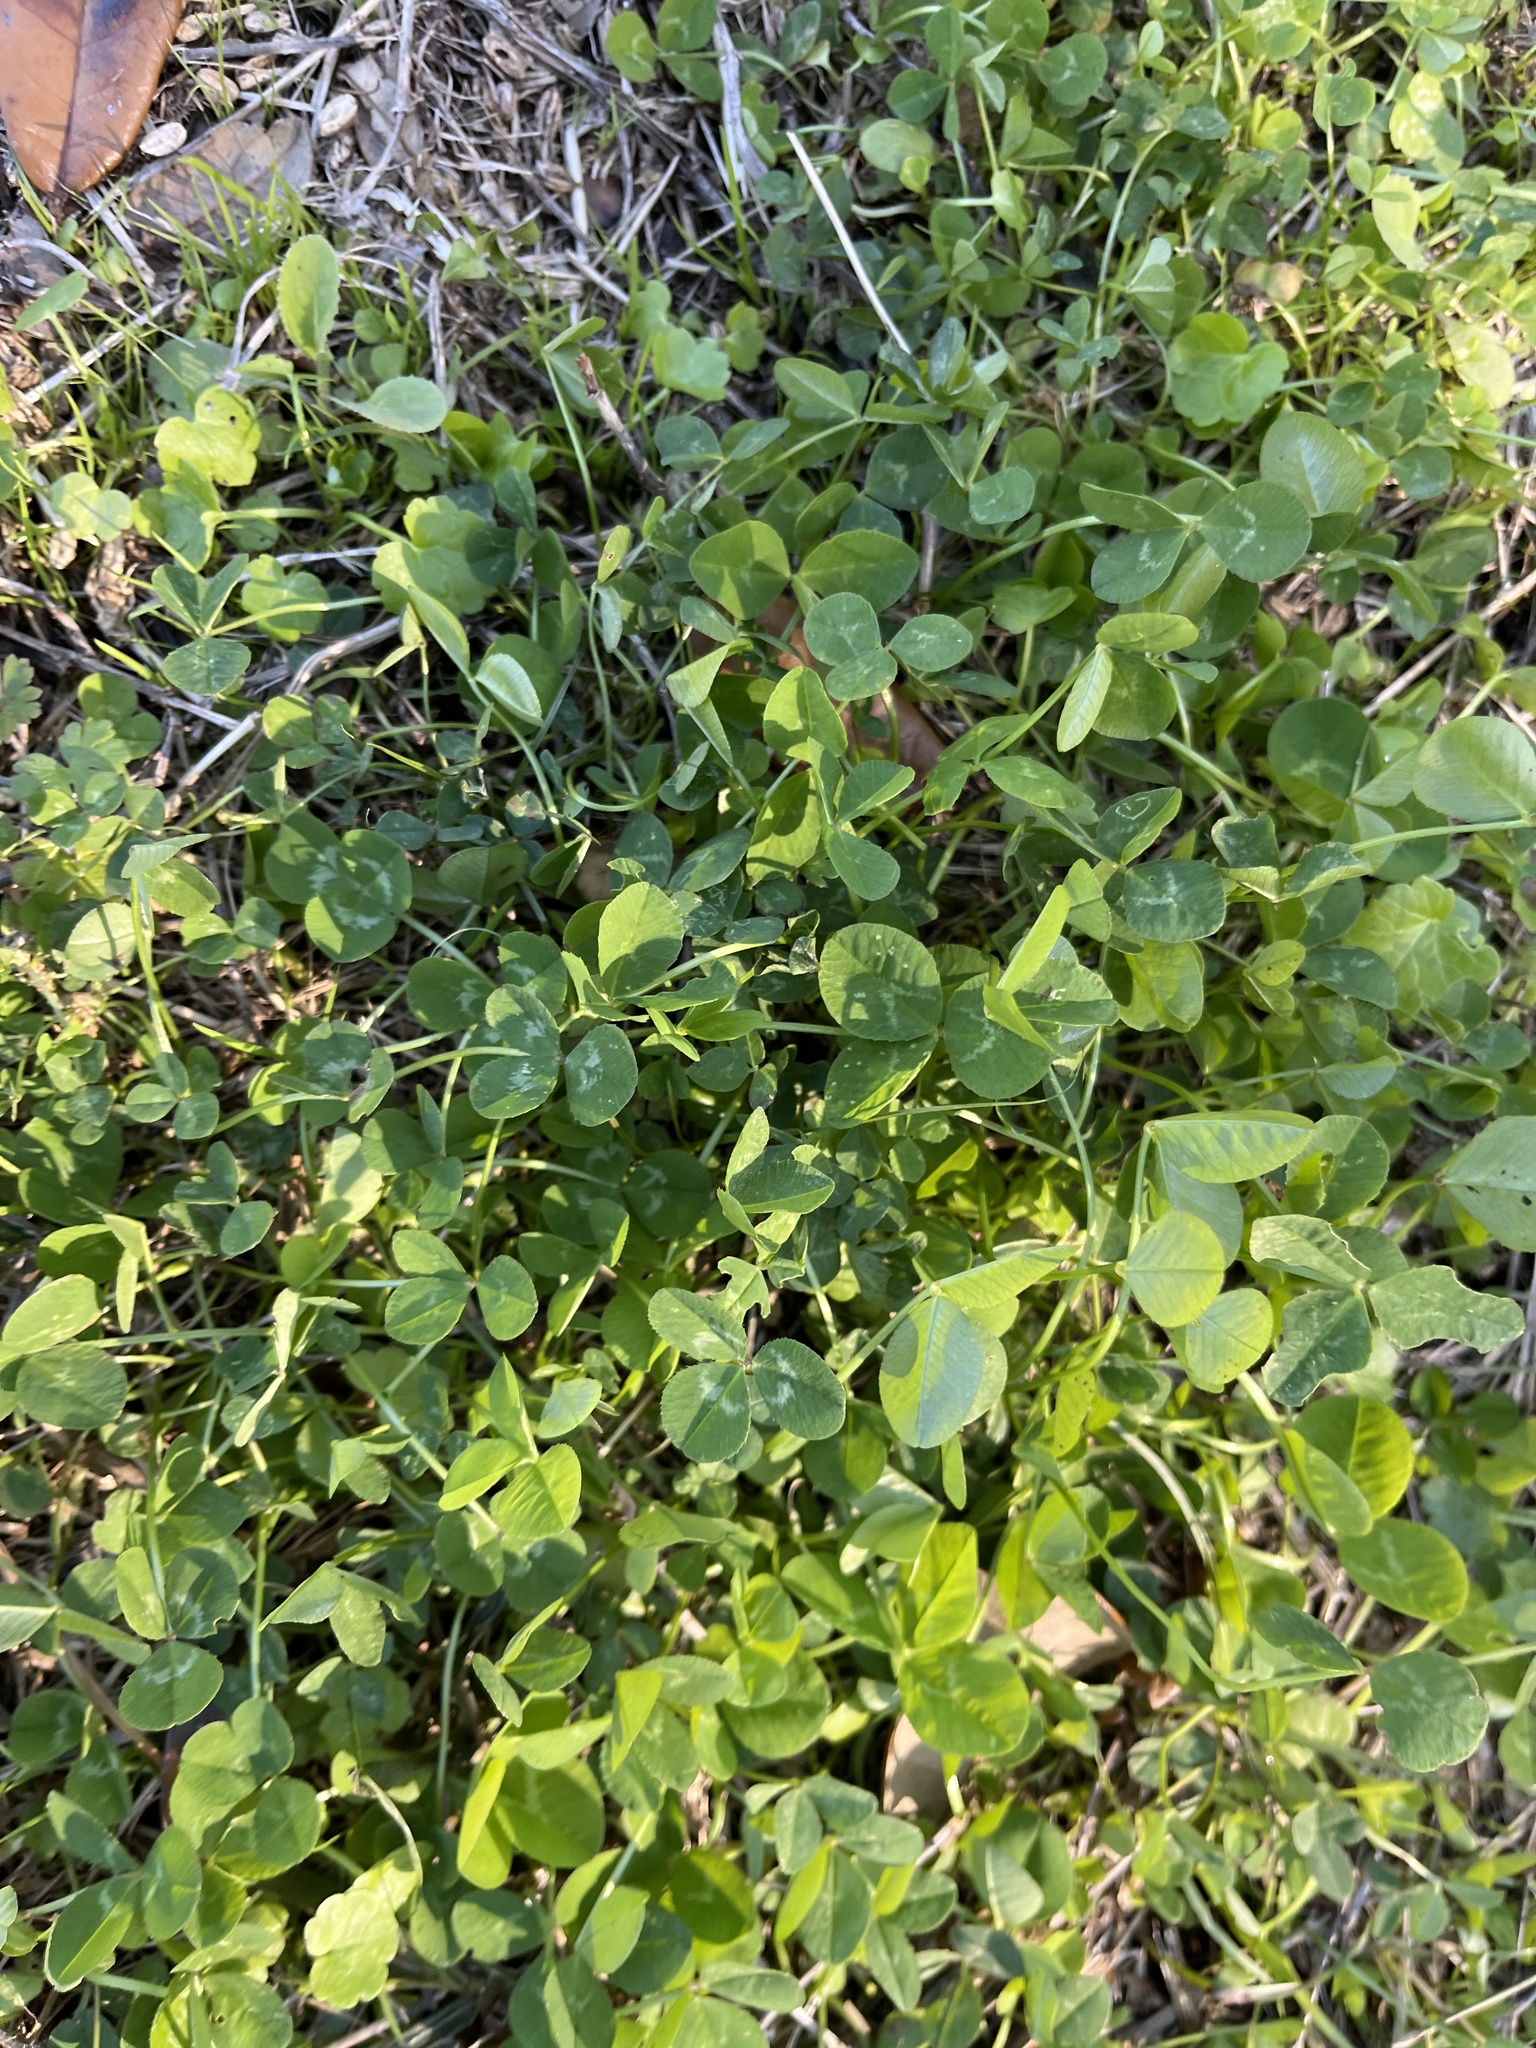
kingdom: Plantae
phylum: Tracheophyta
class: Magnoliopsida
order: Fabales
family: Fabaceae
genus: Trifolium
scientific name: Trifolium repens
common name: White clover
